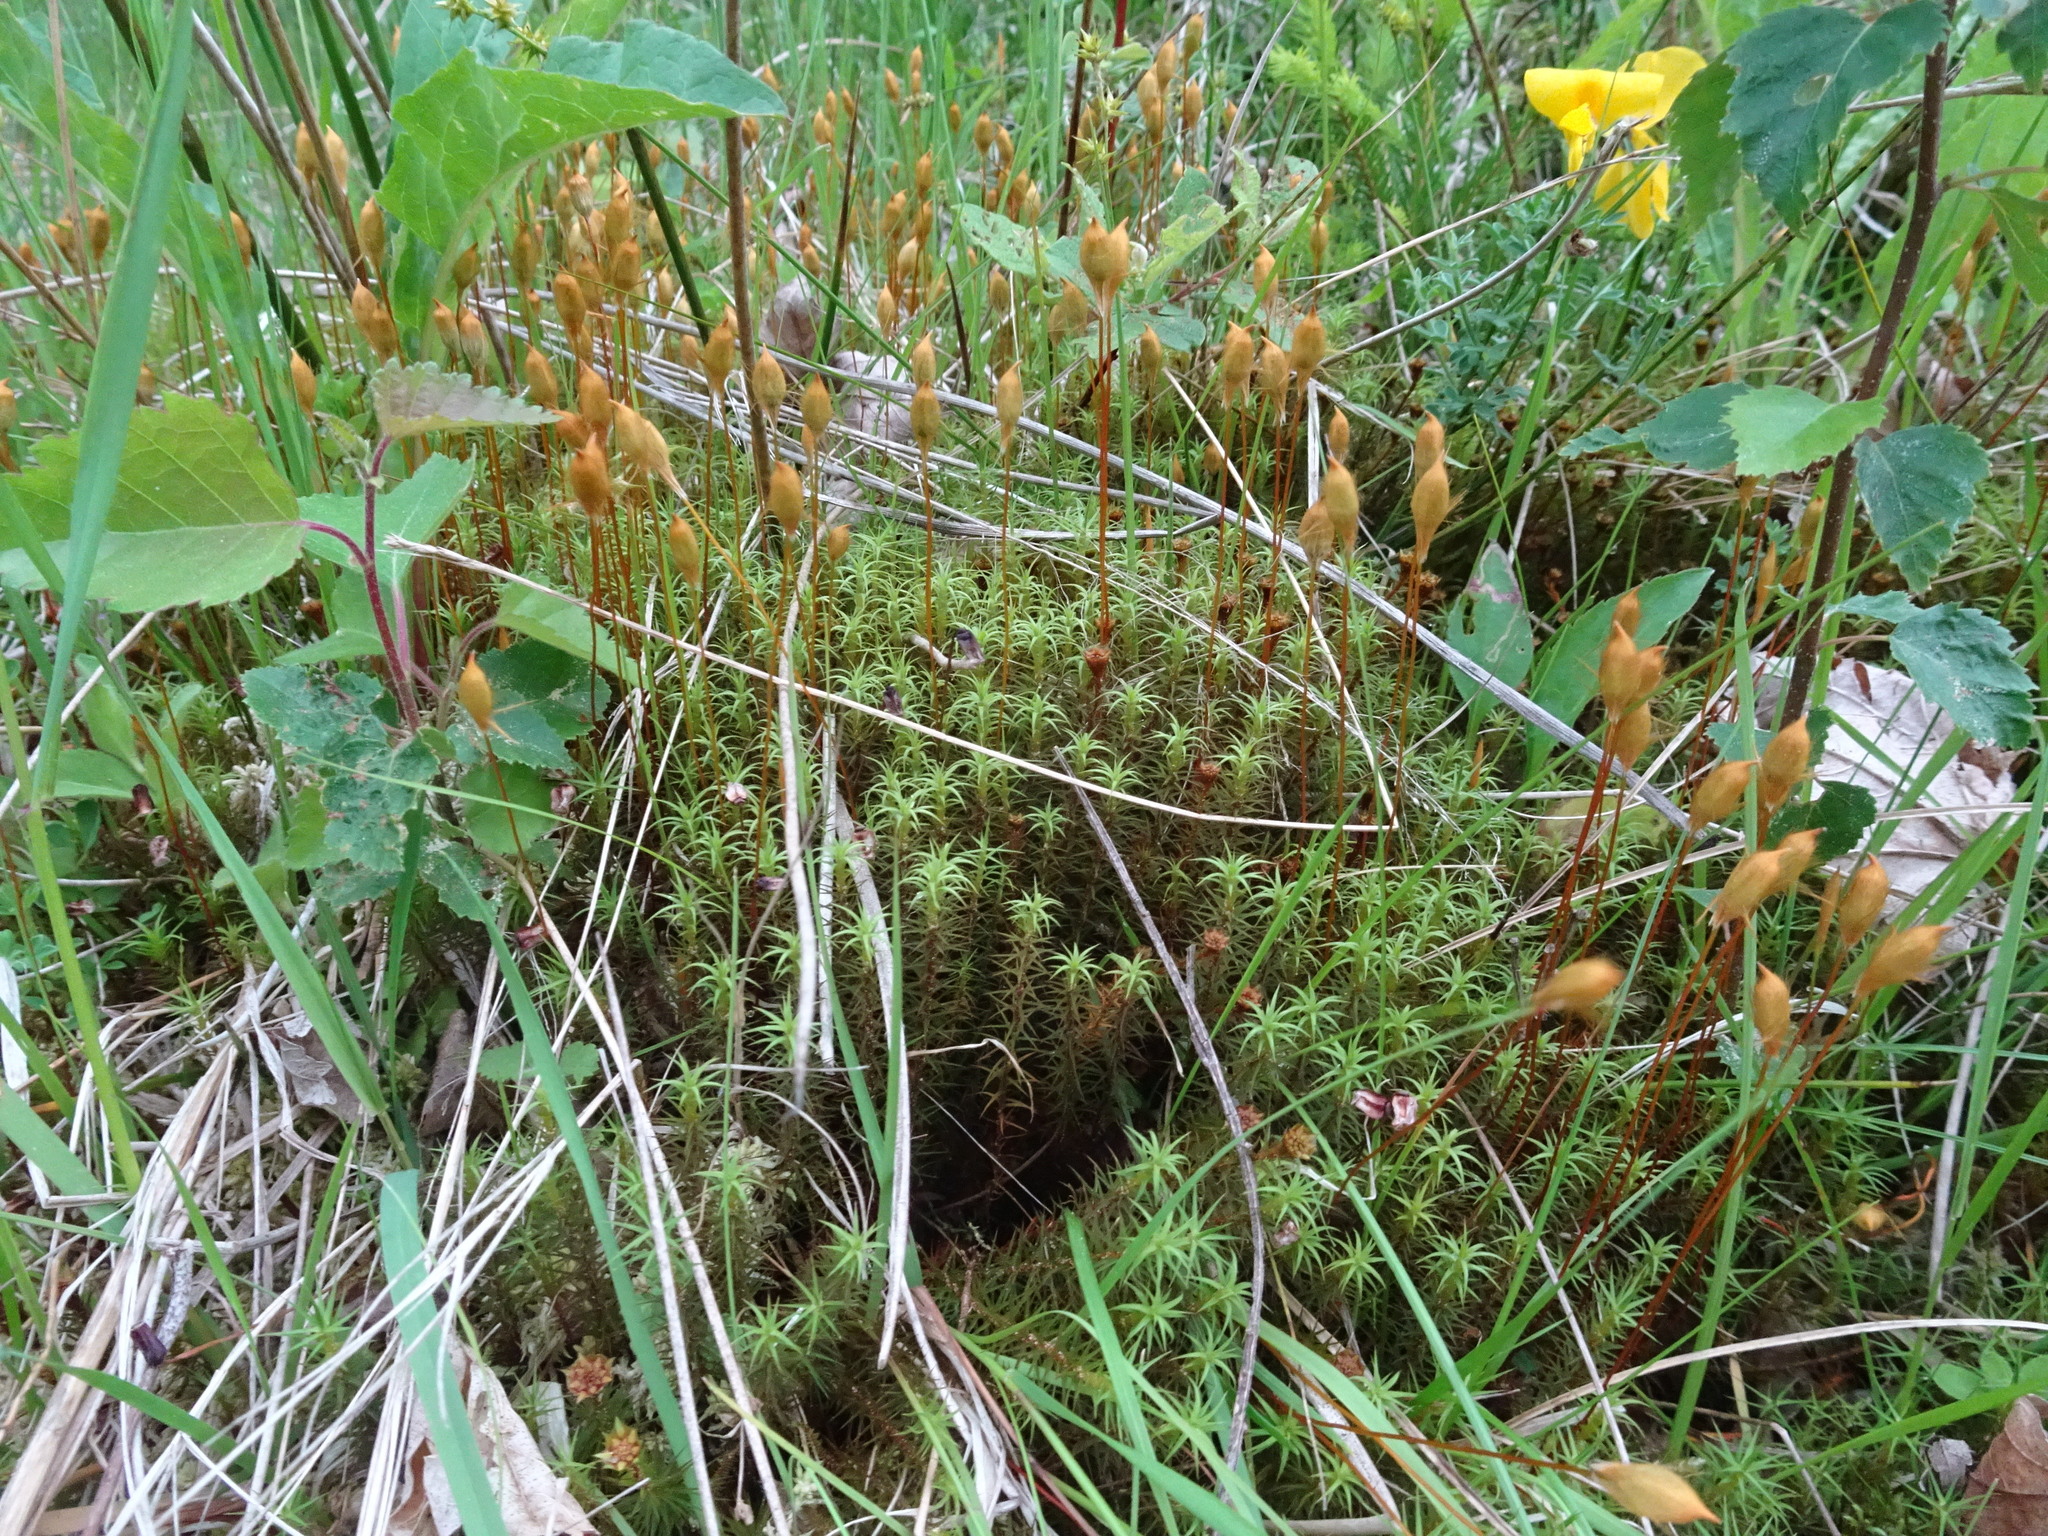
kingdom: Plantae
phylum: Bryophyta
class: Polytrichopsida
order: Polytrichales
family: Polytrichaceae
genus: Polytrichum
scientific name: Polytrichum commune
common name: Common haircap
